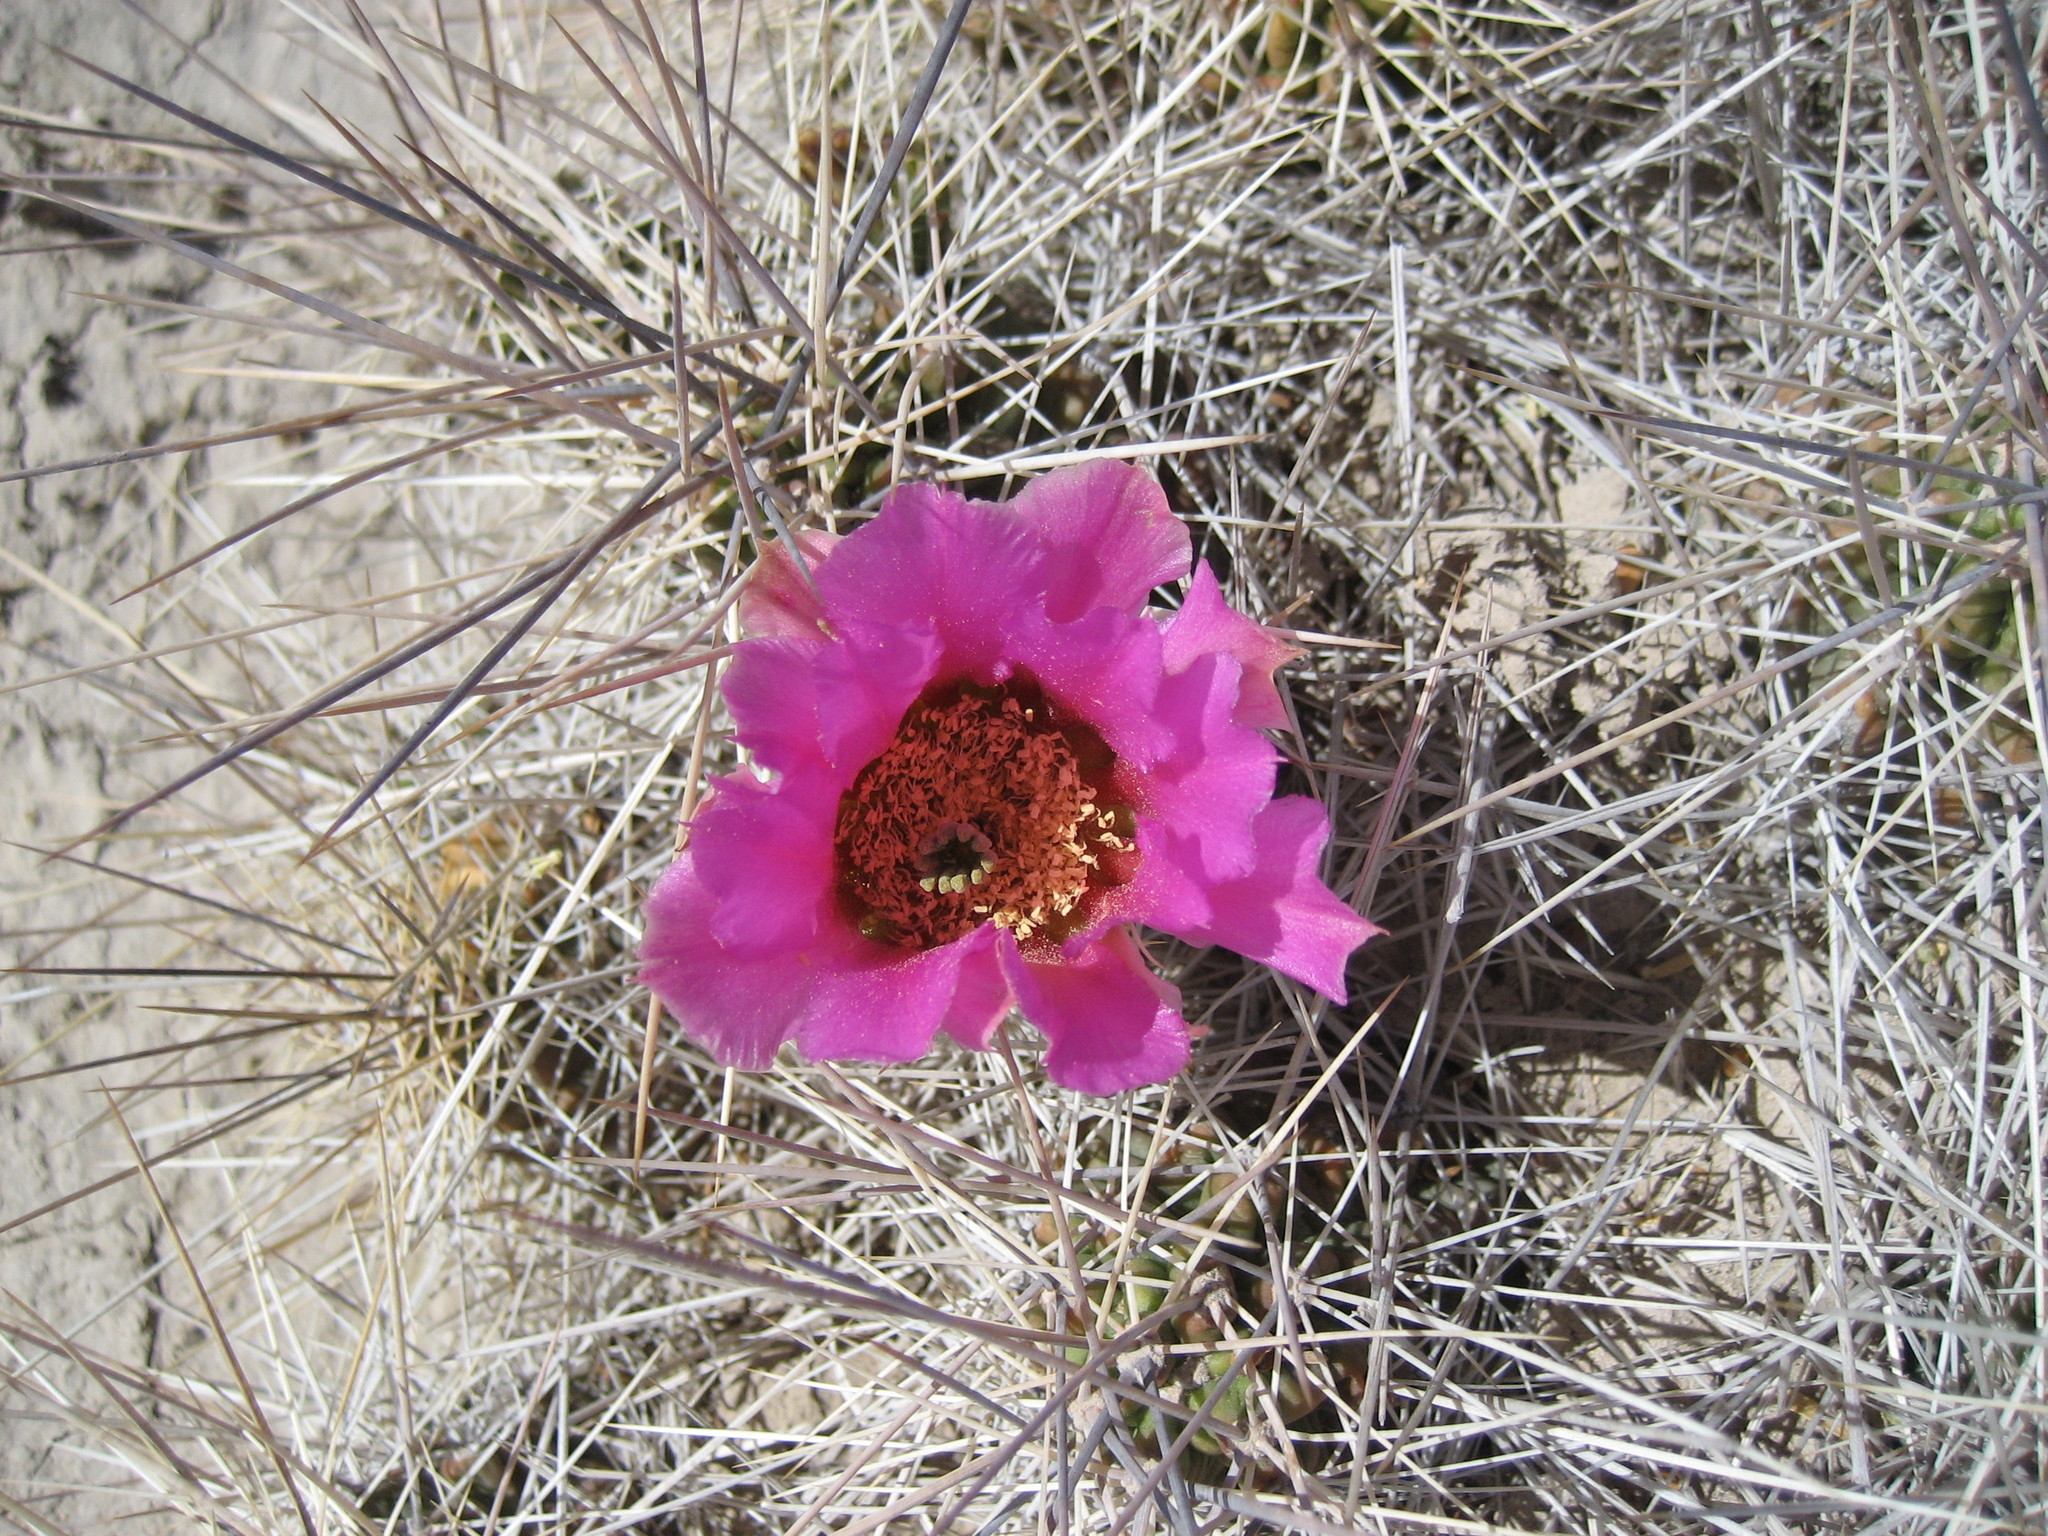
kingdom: Plantae
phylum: Tracheophyta
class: Magnoliopsida
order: Caryophyllales
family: Cactaceae
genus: Echinocereus
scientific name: Echinocereus enneacanthus
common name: Pitaya
